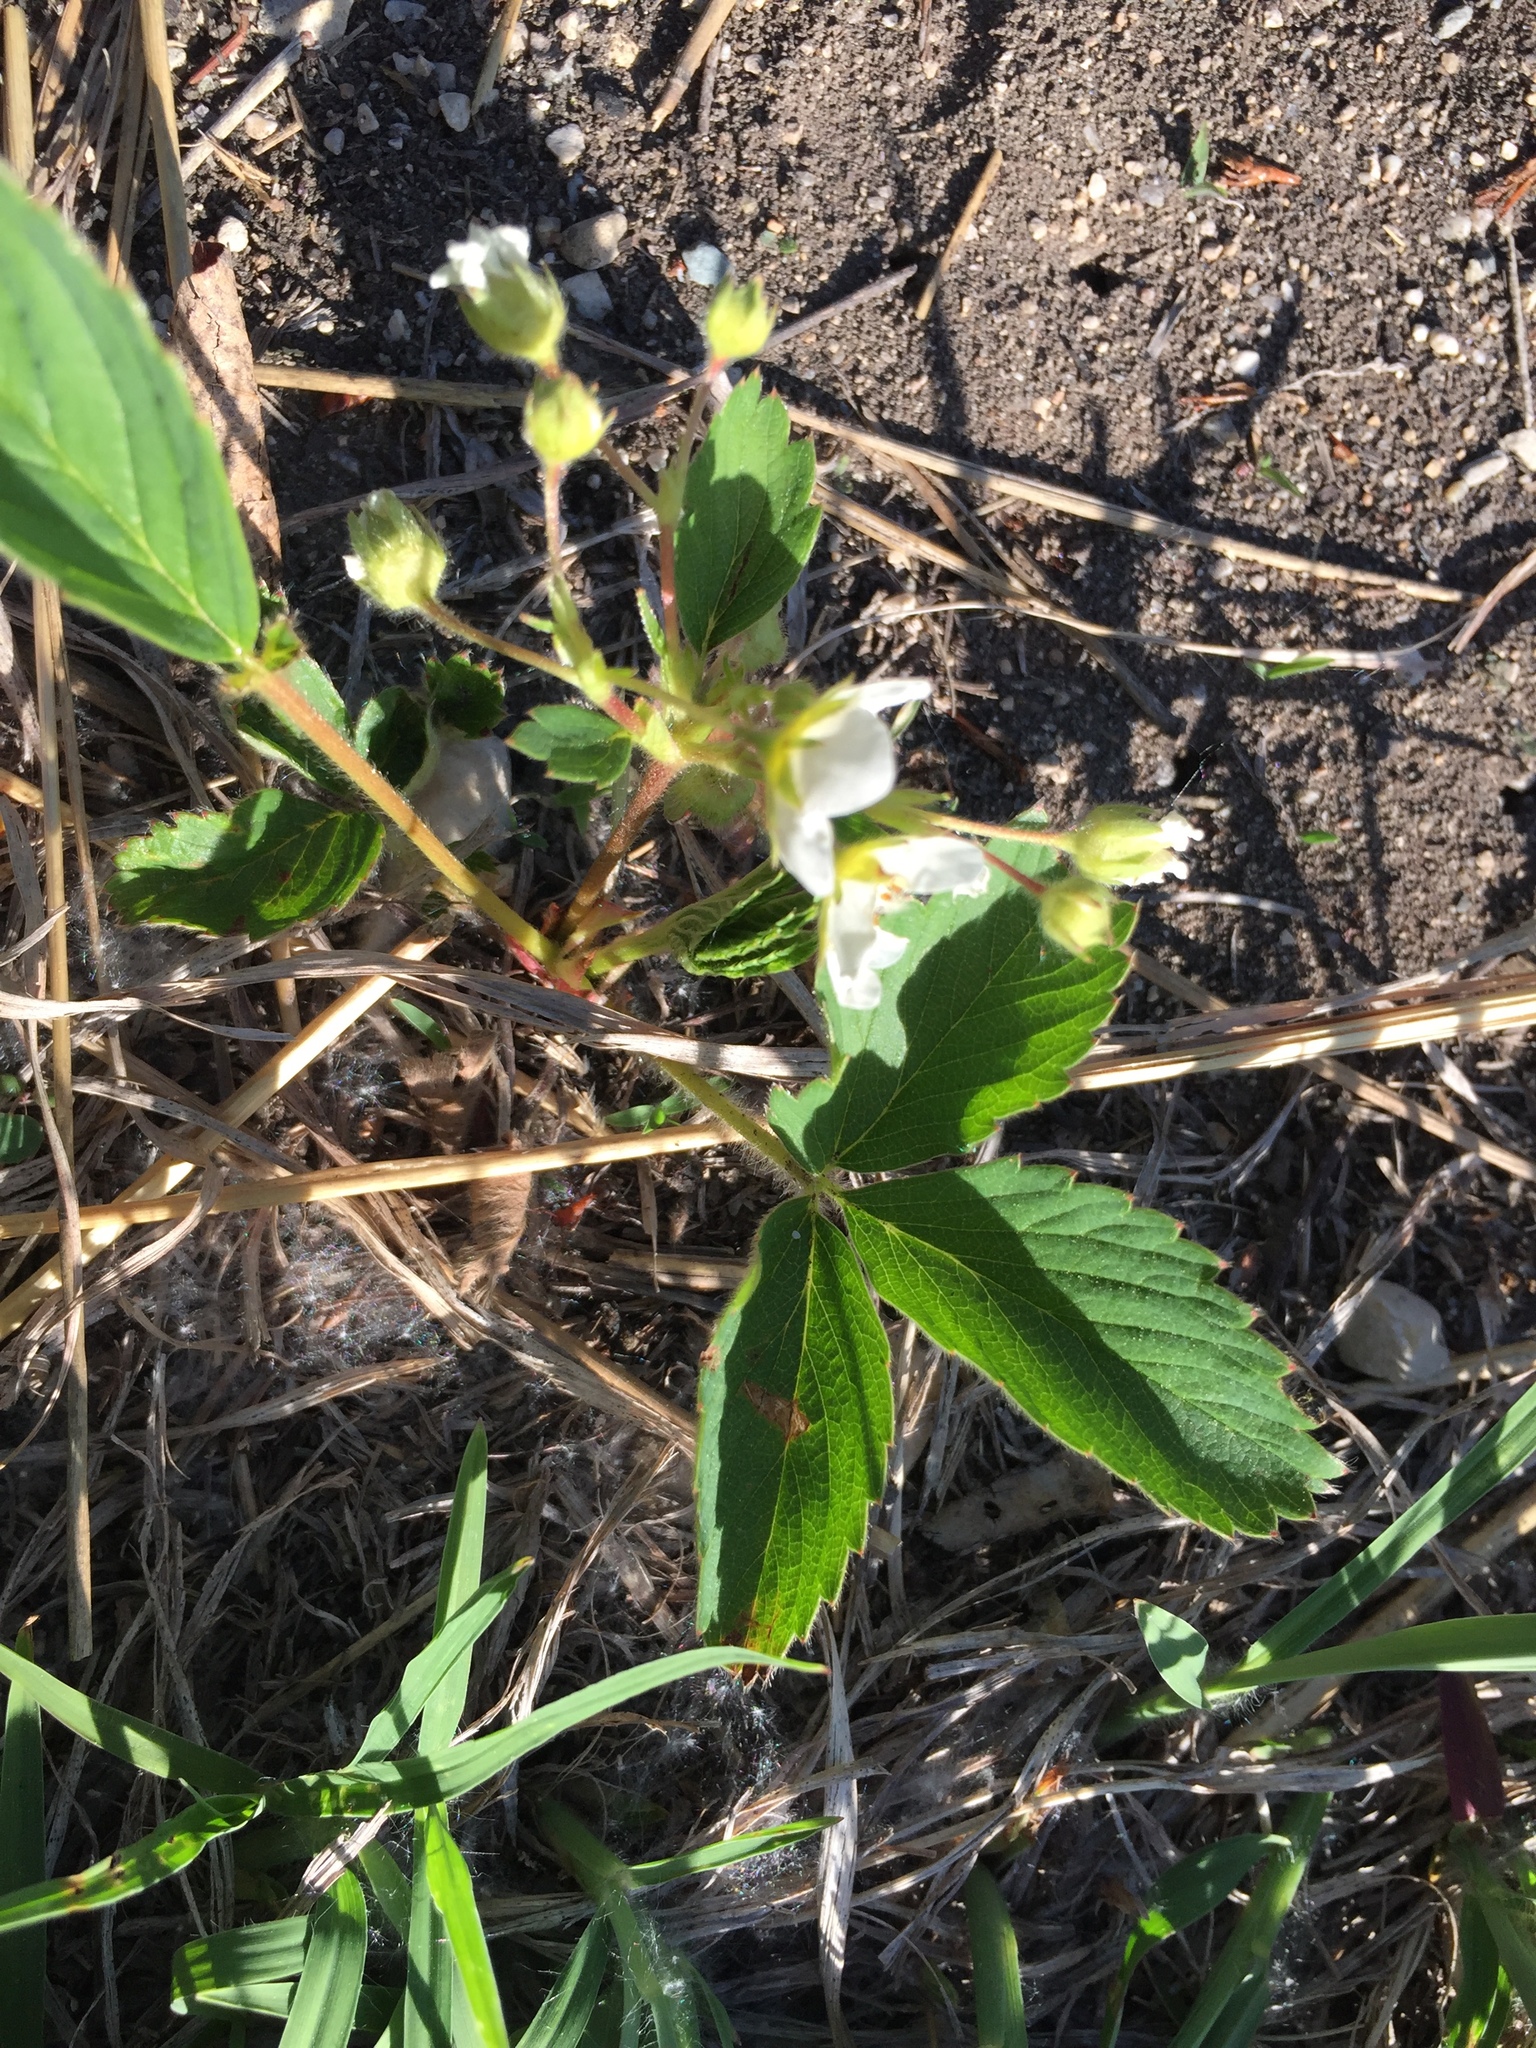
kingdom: Plantae
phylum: Tracheophyta
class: Magnoliopsida
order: Rosales
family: Rosaceae
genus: Fragaria
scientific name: Fragaria virginiana
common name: Thickleaved wild strawberry
